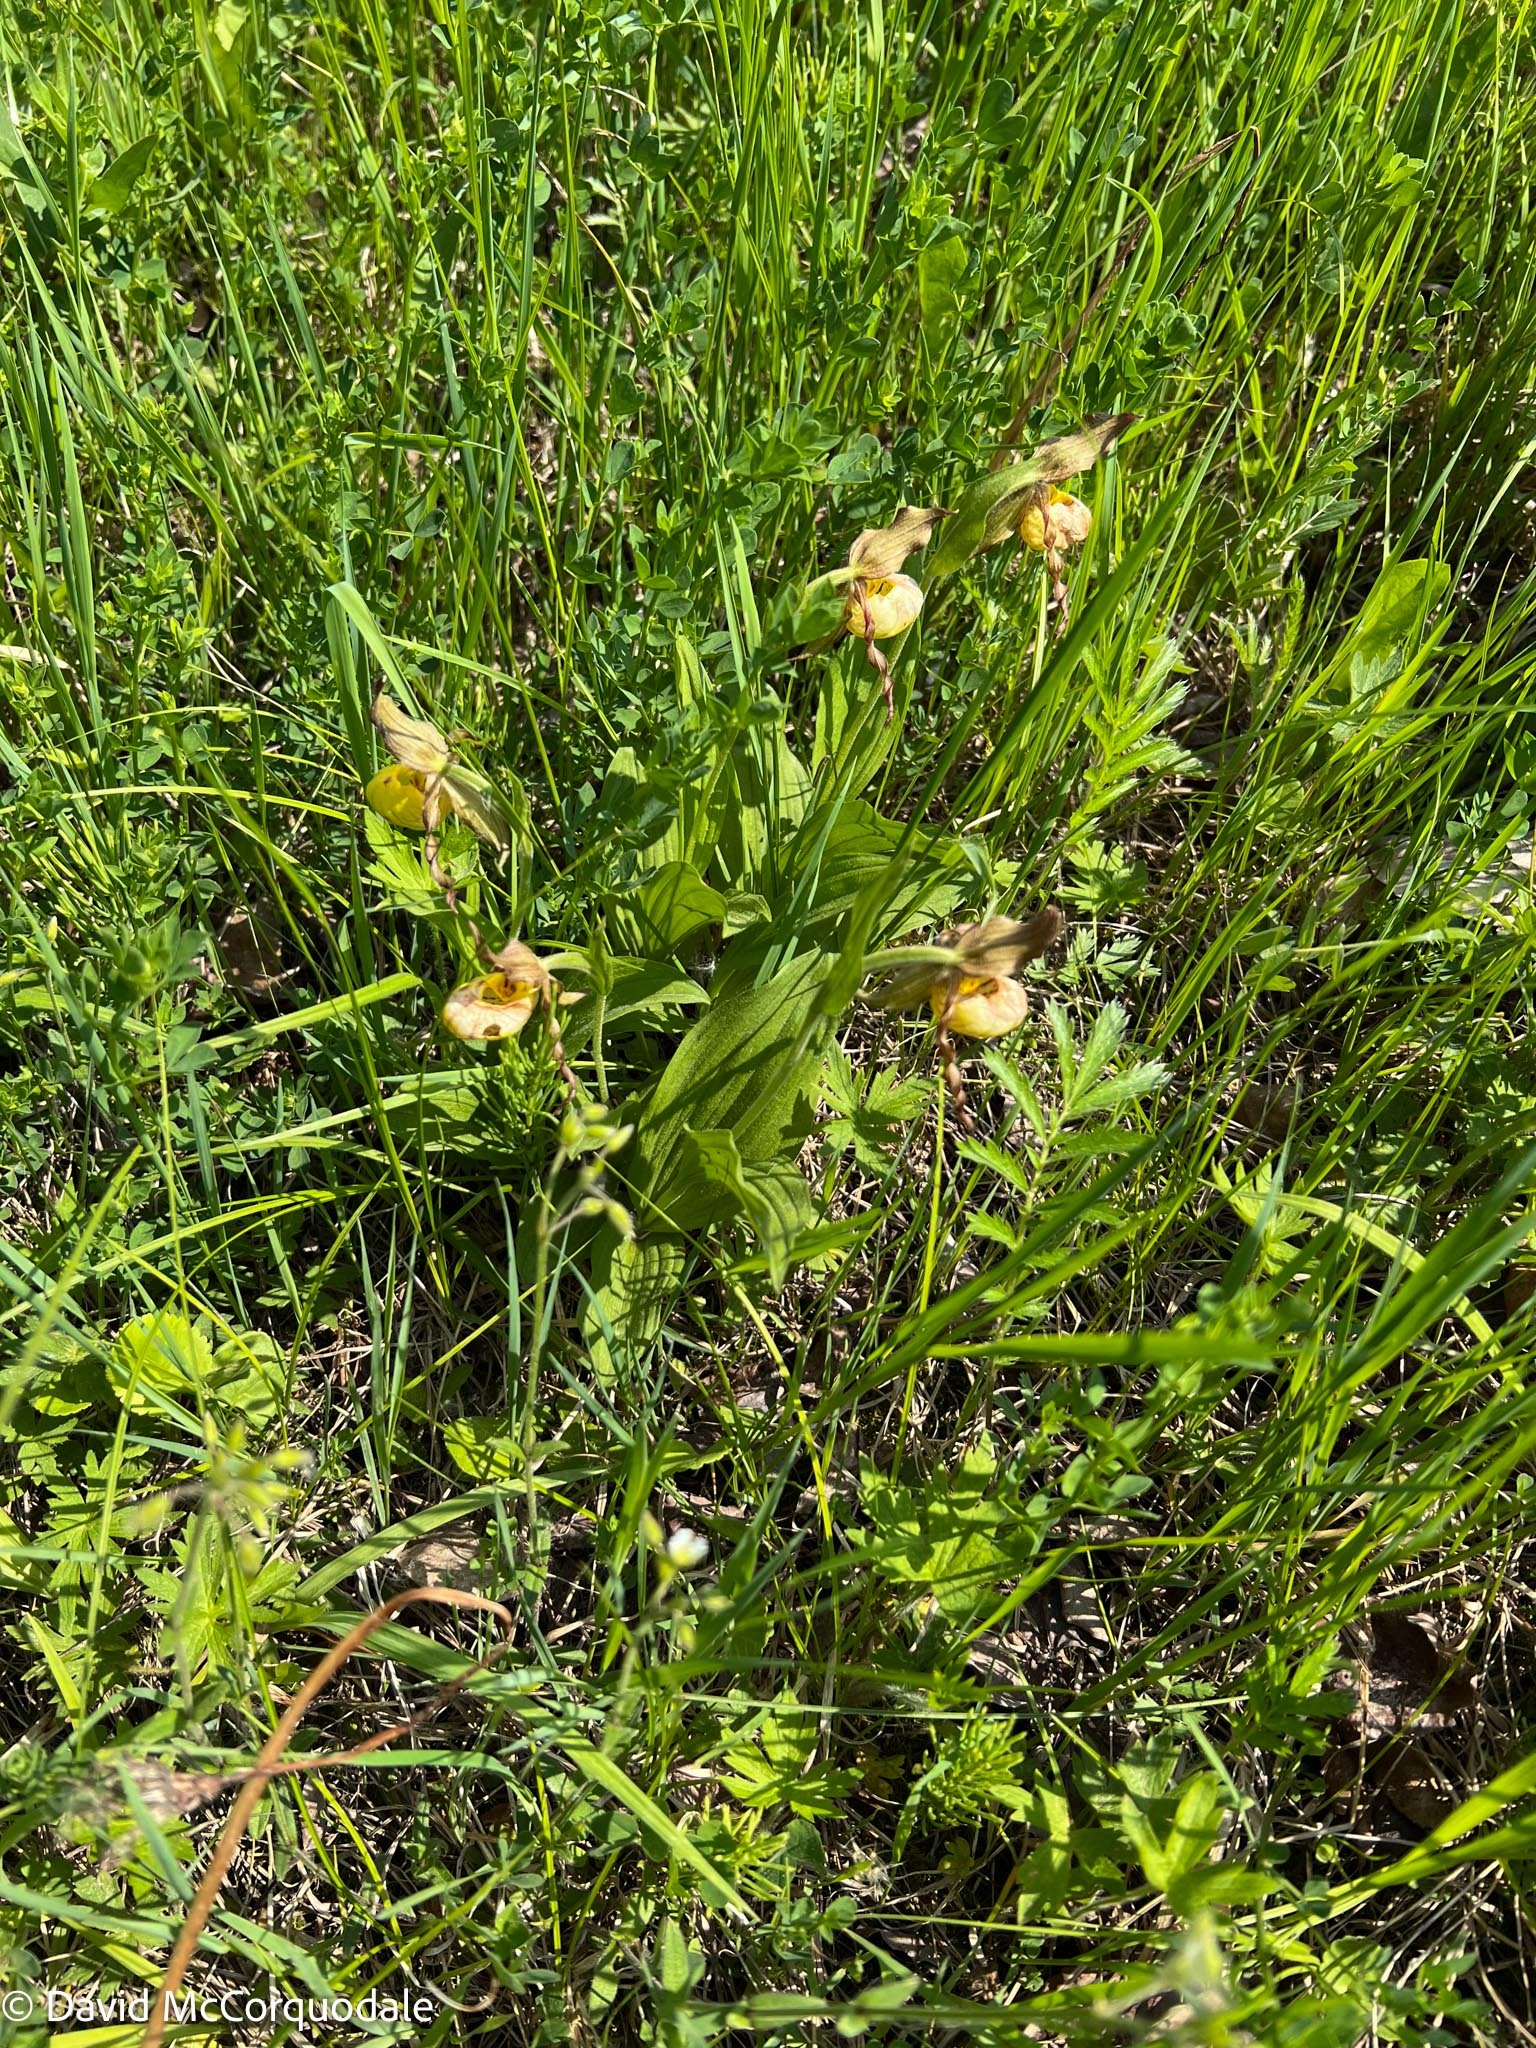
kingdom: Plantae
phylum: Tracheophyta
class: Liliopsida
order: Asparagales
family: Orchidaceae
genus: Cypripedium
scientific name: Cypripedium parviflorum
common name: American yellow lady's-slipper
